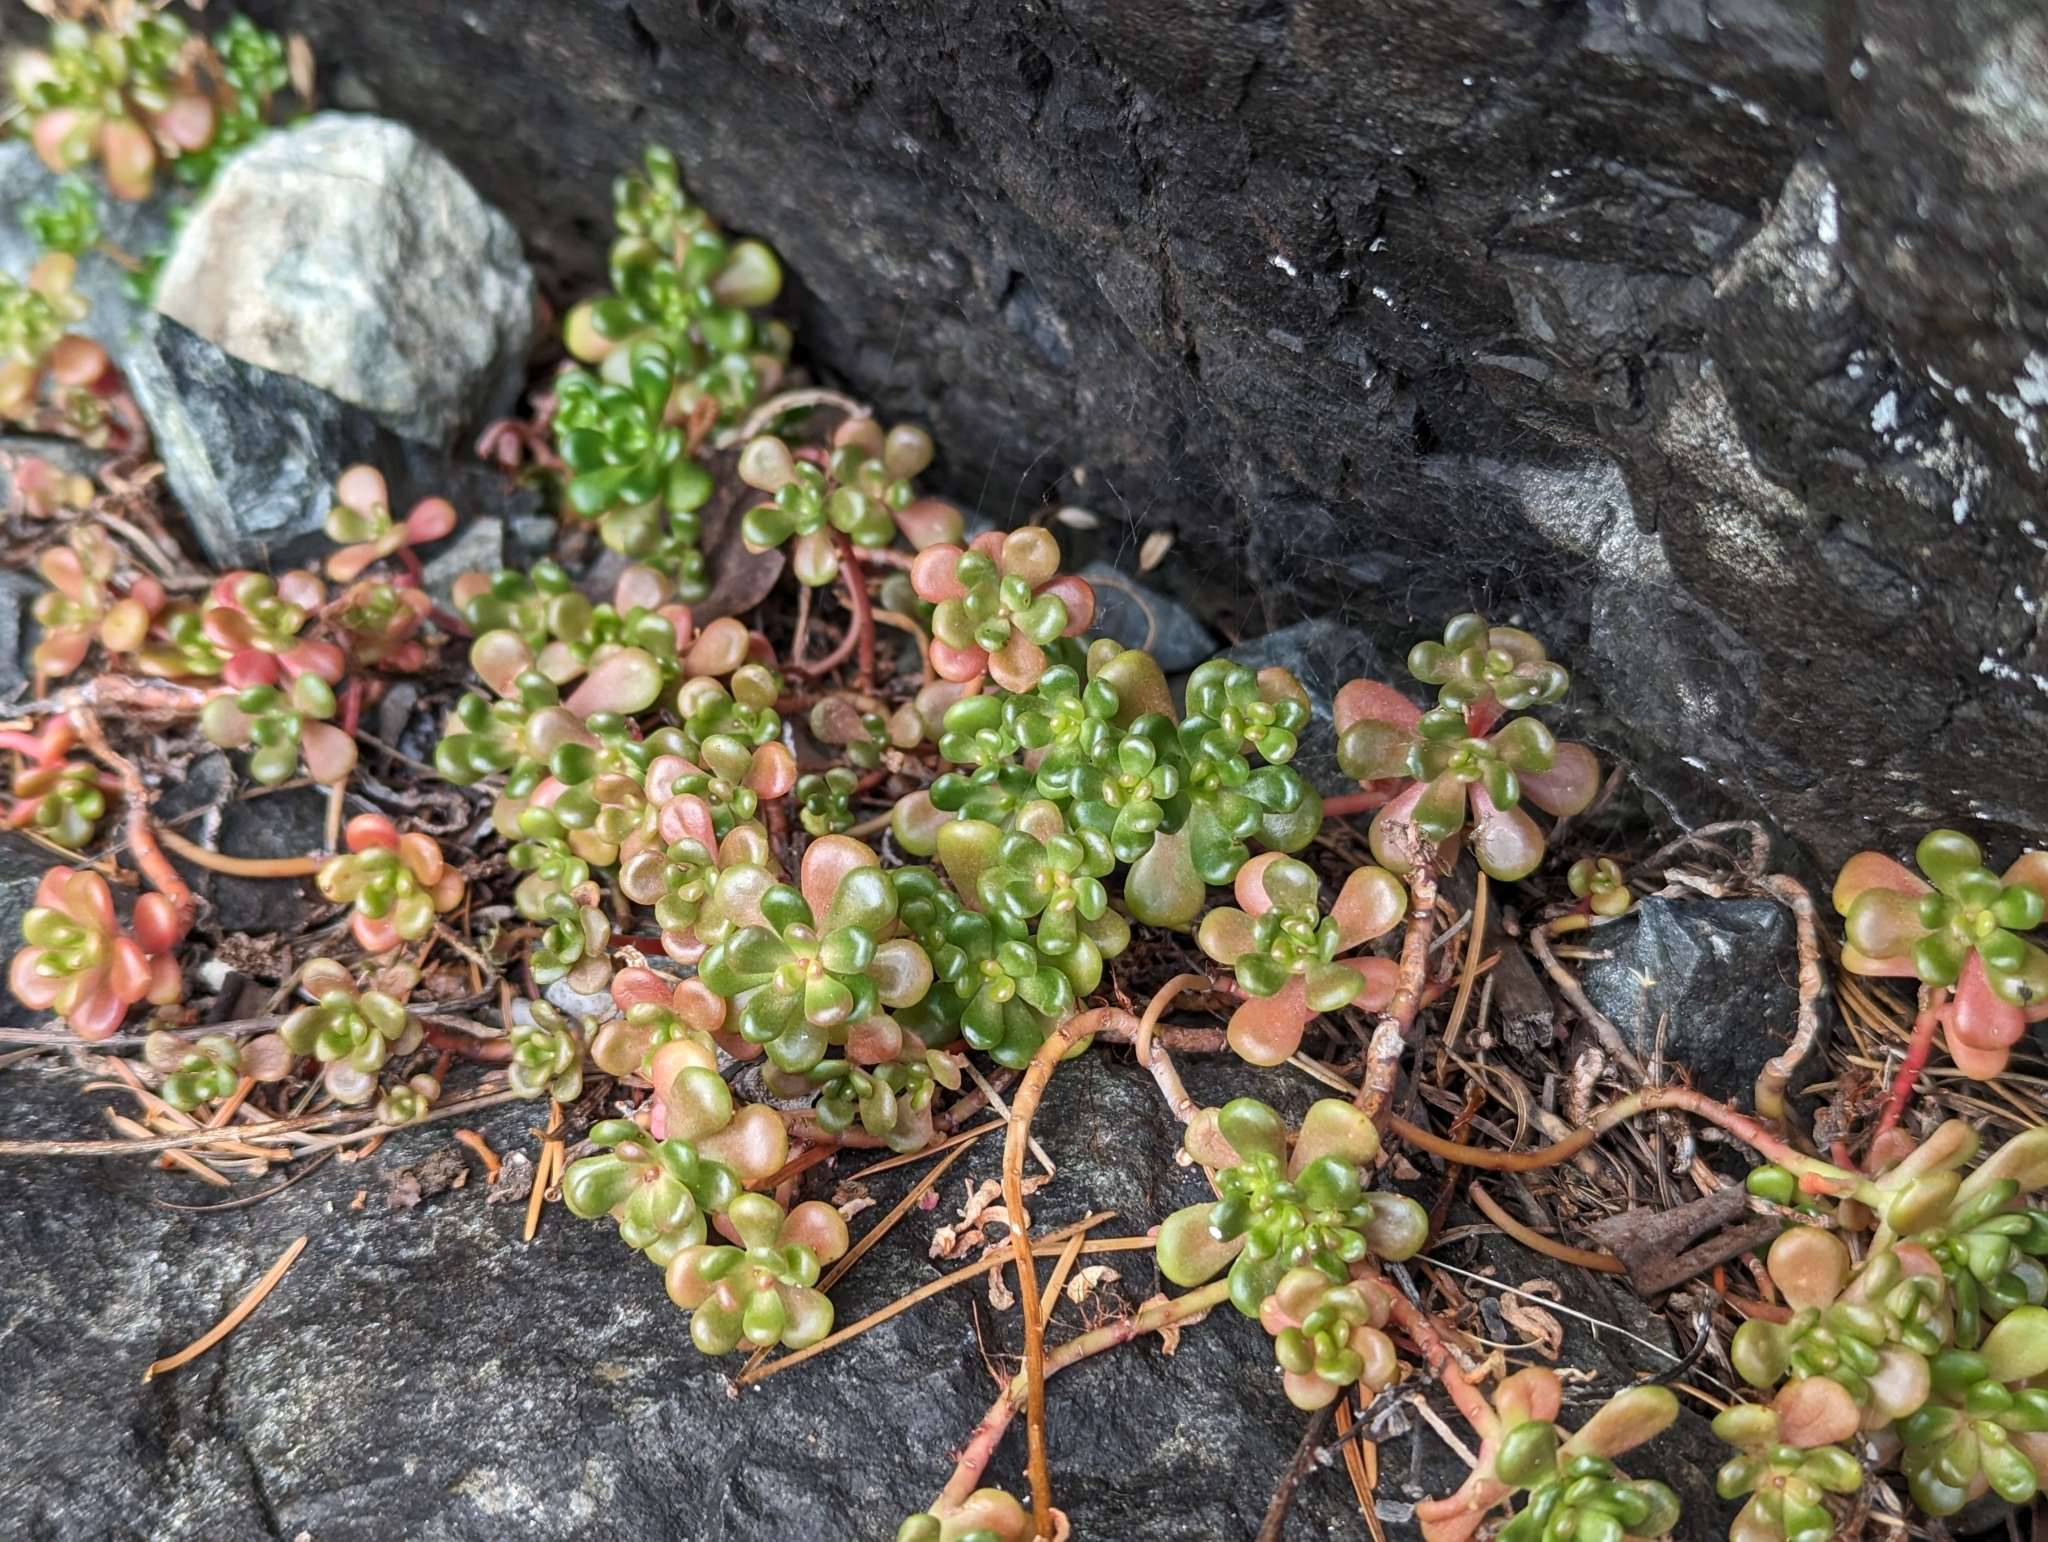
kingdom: Plantae
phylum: Tracheophyta
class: Magnoliopsida
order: Saxifragales
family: Crassulaceae
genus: Sedum
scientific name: Sedum oreganum
